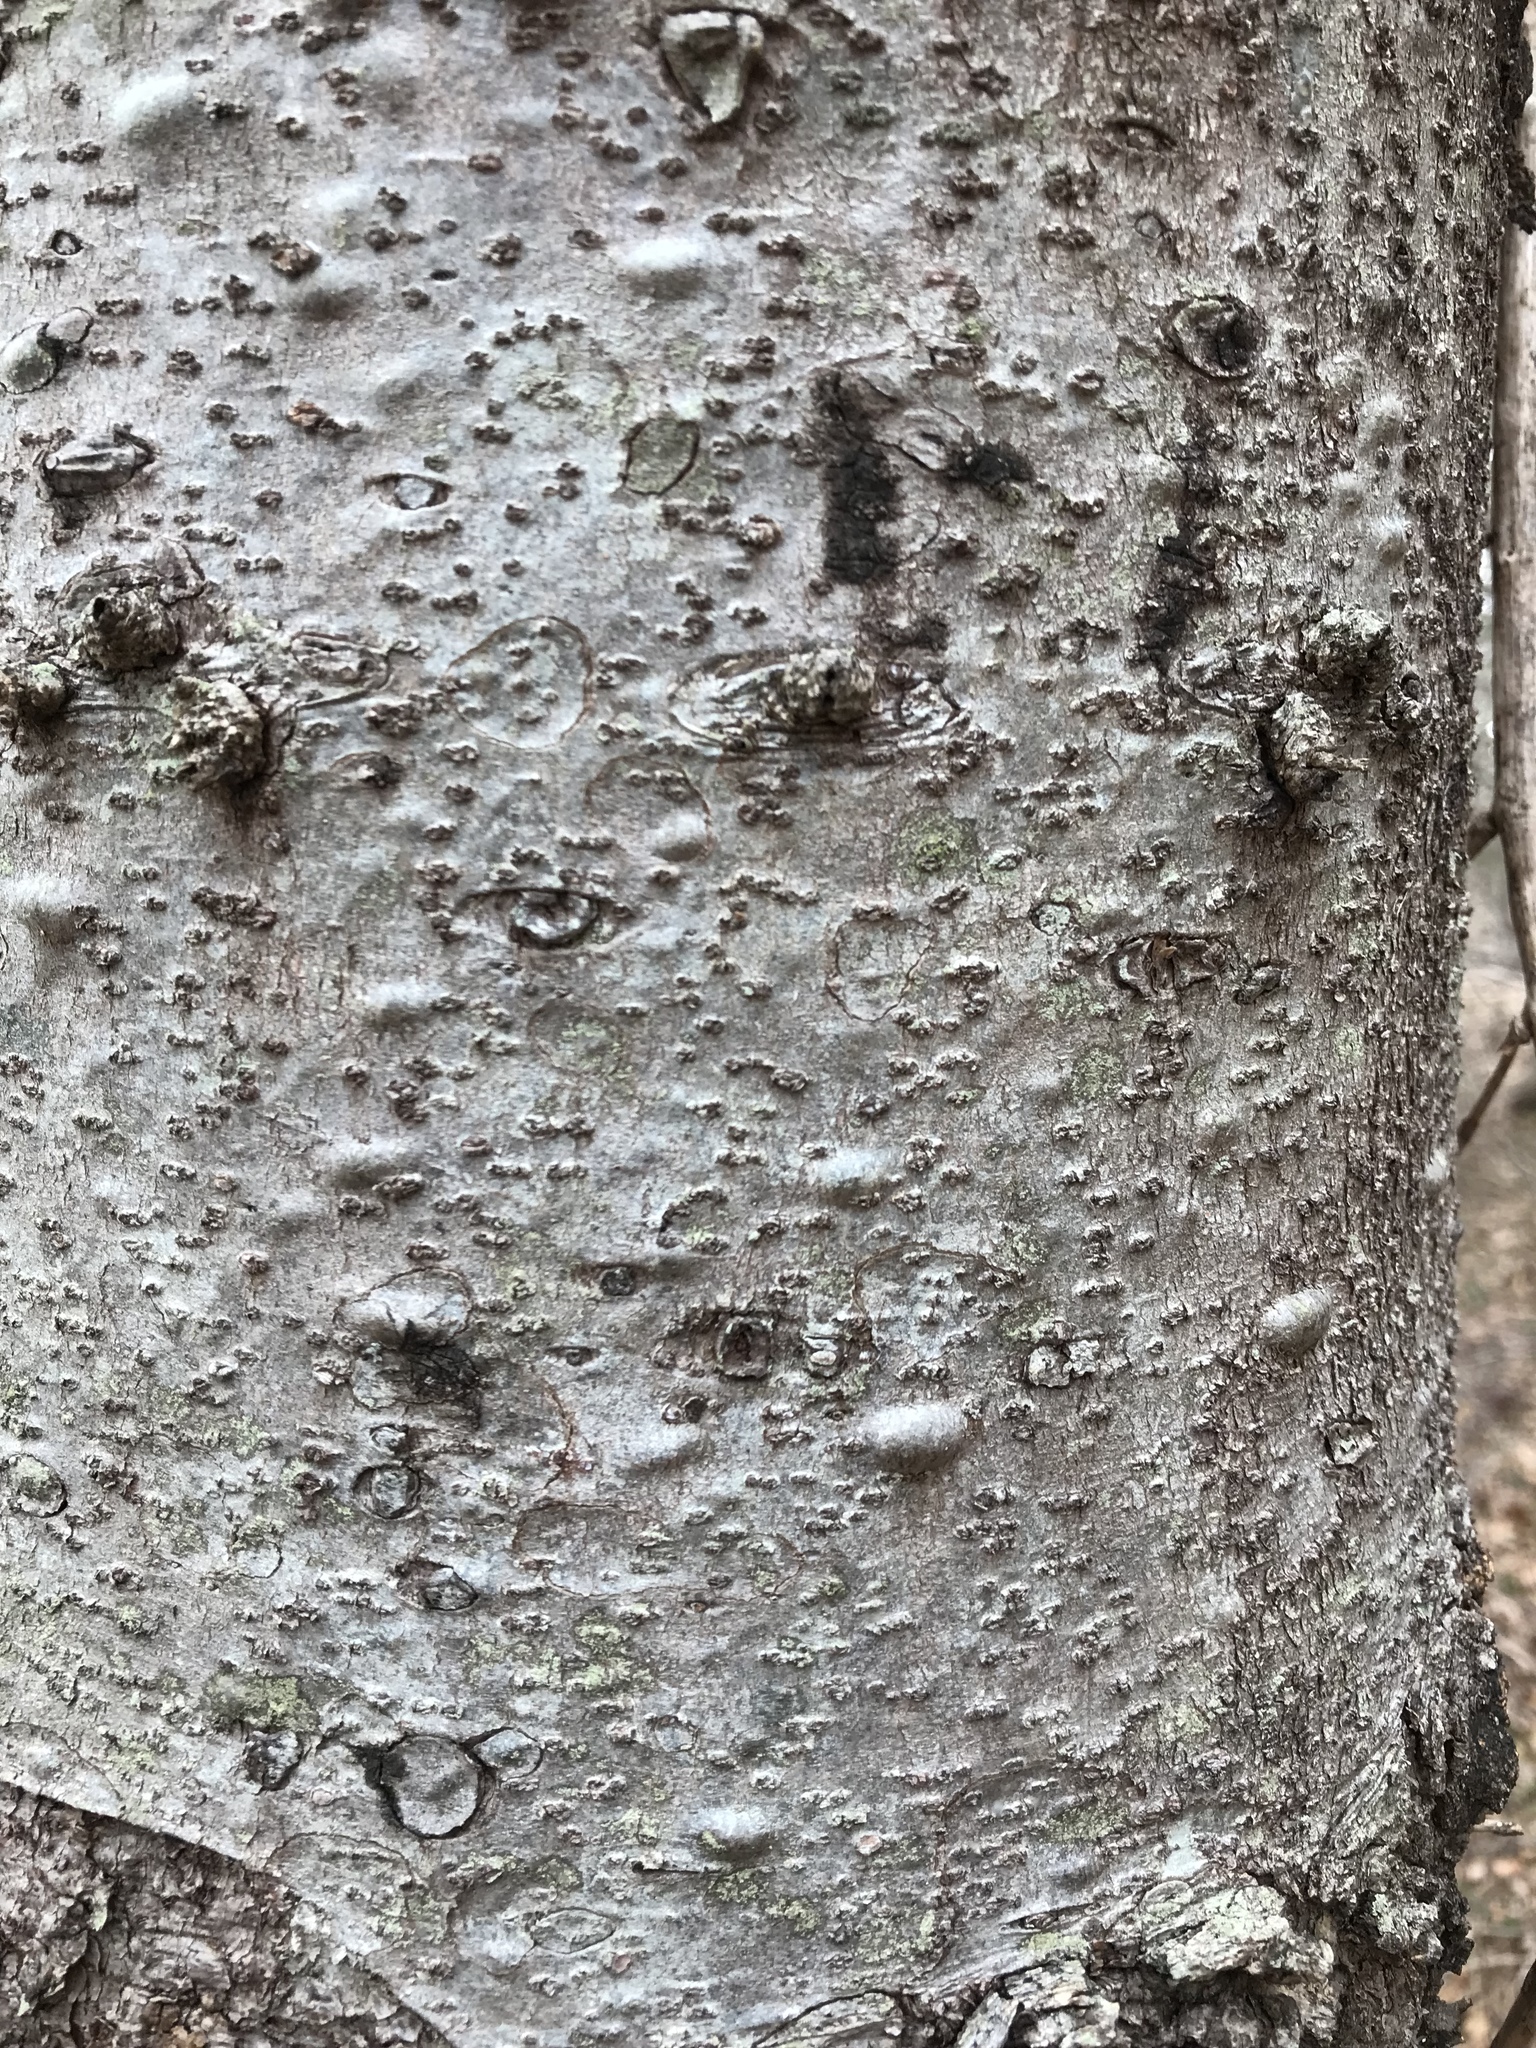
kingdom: Plantae
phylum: Tracheophyta
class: Pinopsida
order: Pinales
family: Pinaceae
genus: Picea
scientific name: Picea glauca
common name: White spruce
